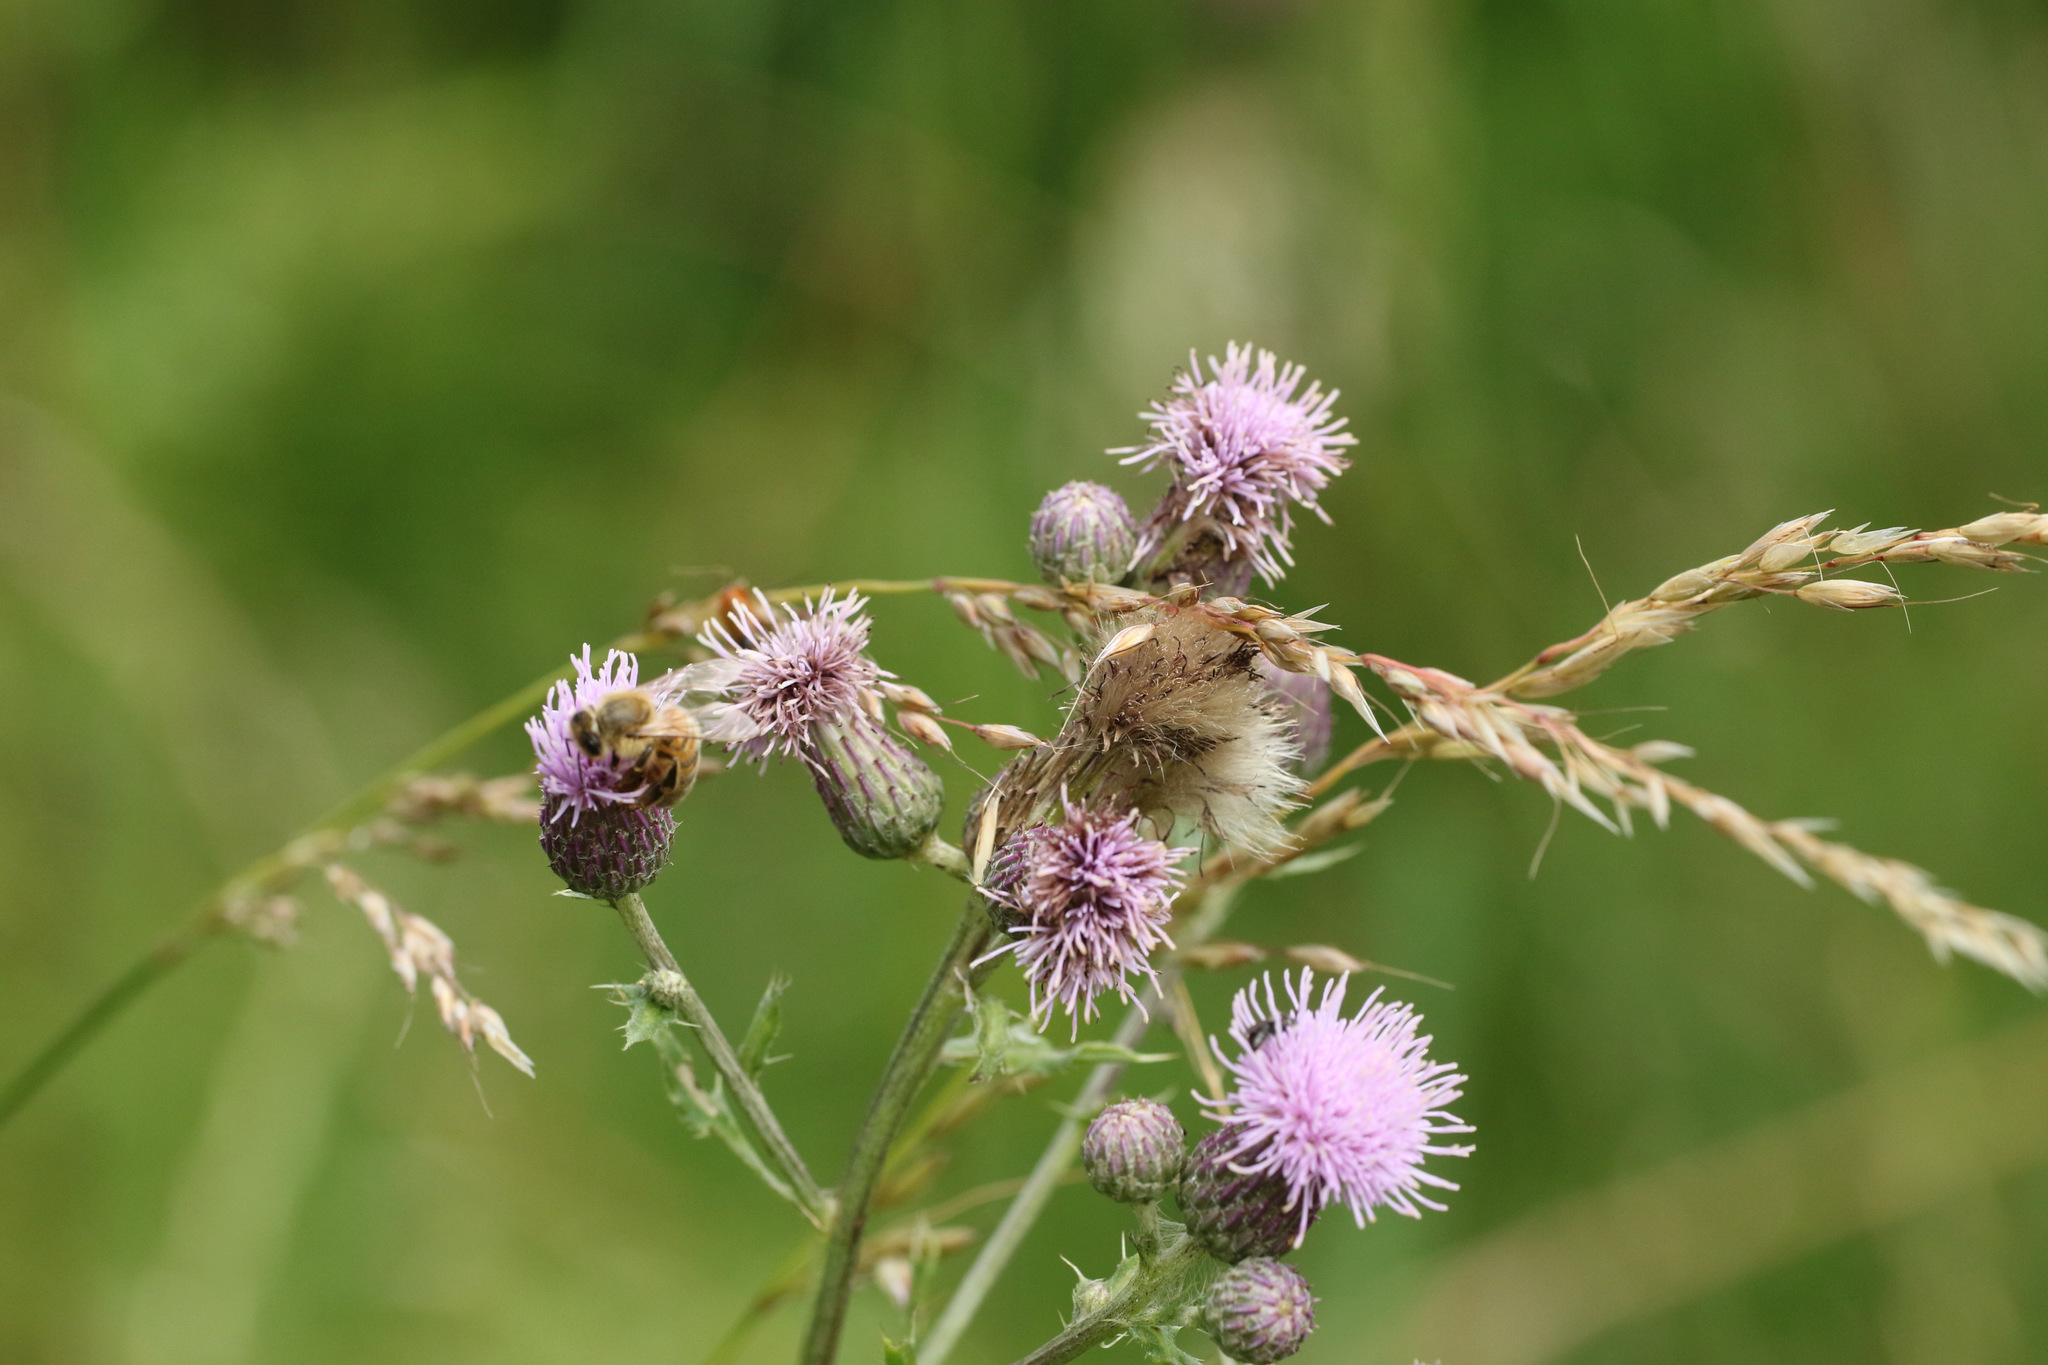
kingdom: Plantae
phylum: Tracheophyta
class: Magnoliopsida
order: Asterales
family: Asteraceae
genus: Cirsium
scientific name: Cirsium arvense
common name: Creeping thistle
